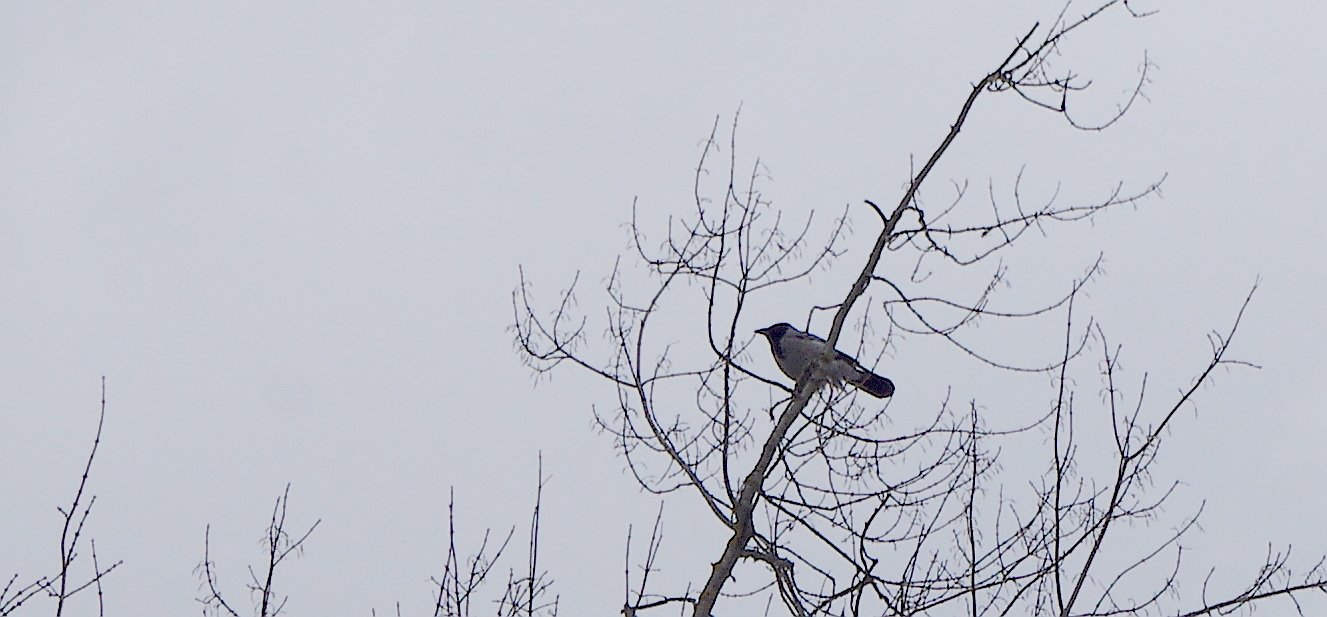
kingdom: Animalia
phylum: Chordata
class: Aves
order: Passeriformes
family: Corvidae
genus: Corvus
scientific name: Corvus cornix
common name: Hooded crow
